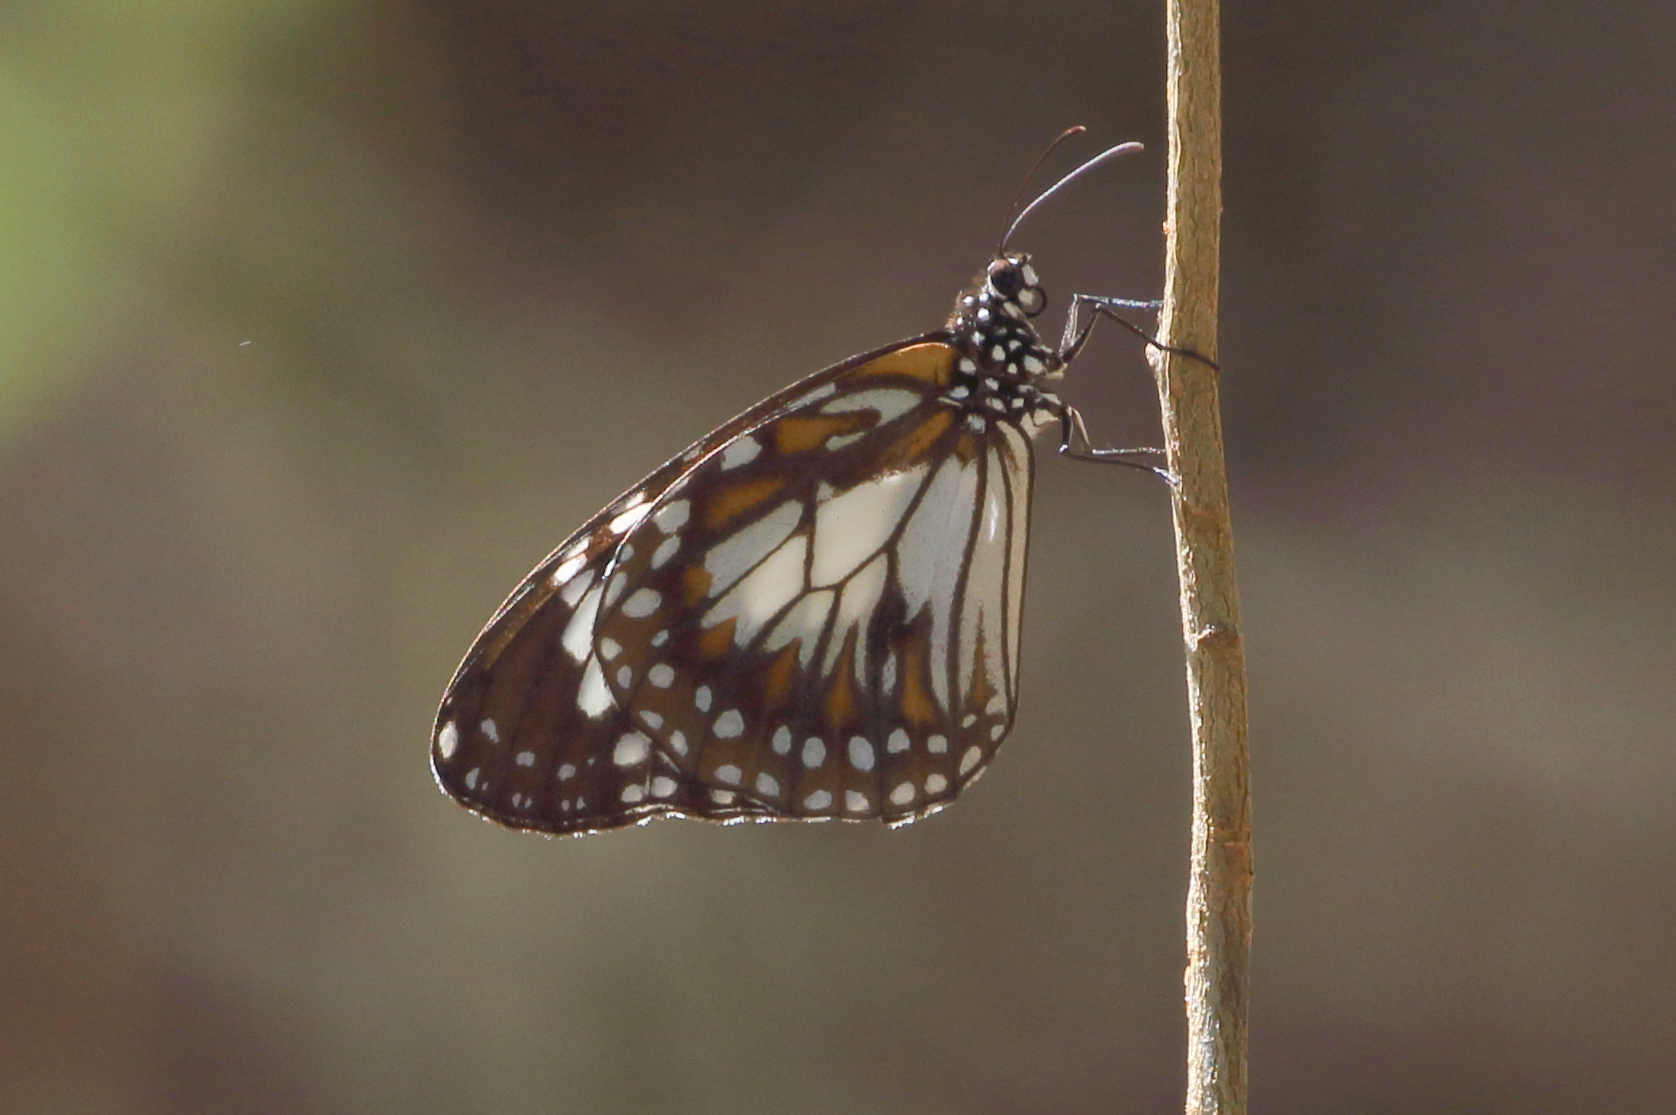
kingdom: Animalia
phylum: Arthropoda
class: Insecta
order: Lepidoptera
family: Nymphalidae
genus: Danaus
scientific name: Danaus affinis
